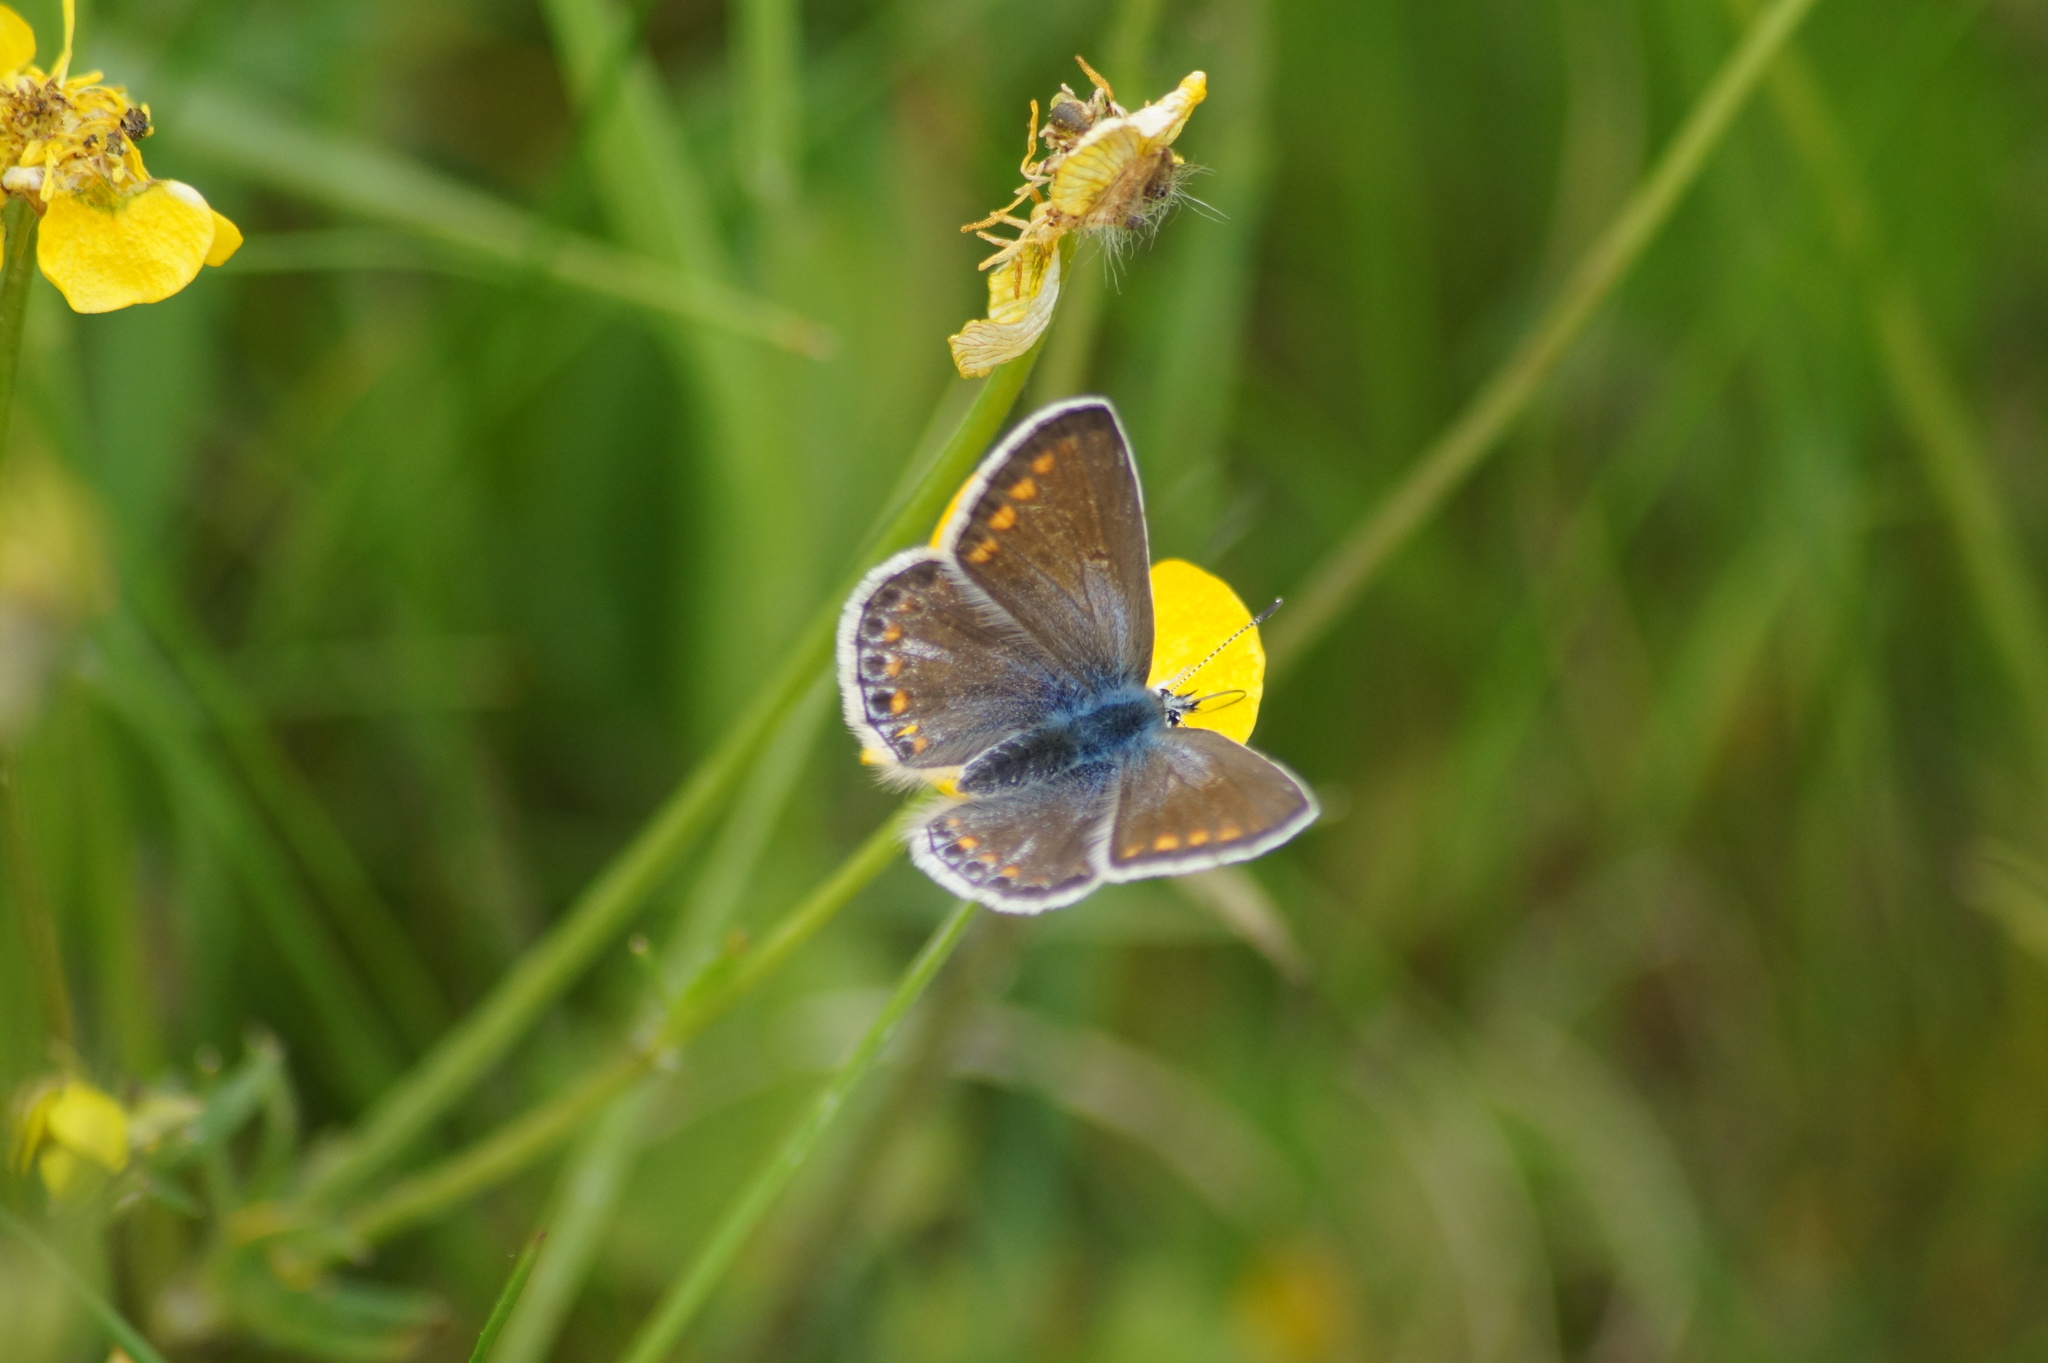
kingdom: Animalia
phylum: Arthropoda
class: Insecta
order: Lepidoptera
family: Lycaenidae
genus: Polyommatus
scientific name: Polyommatus icarus
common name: Common blue
